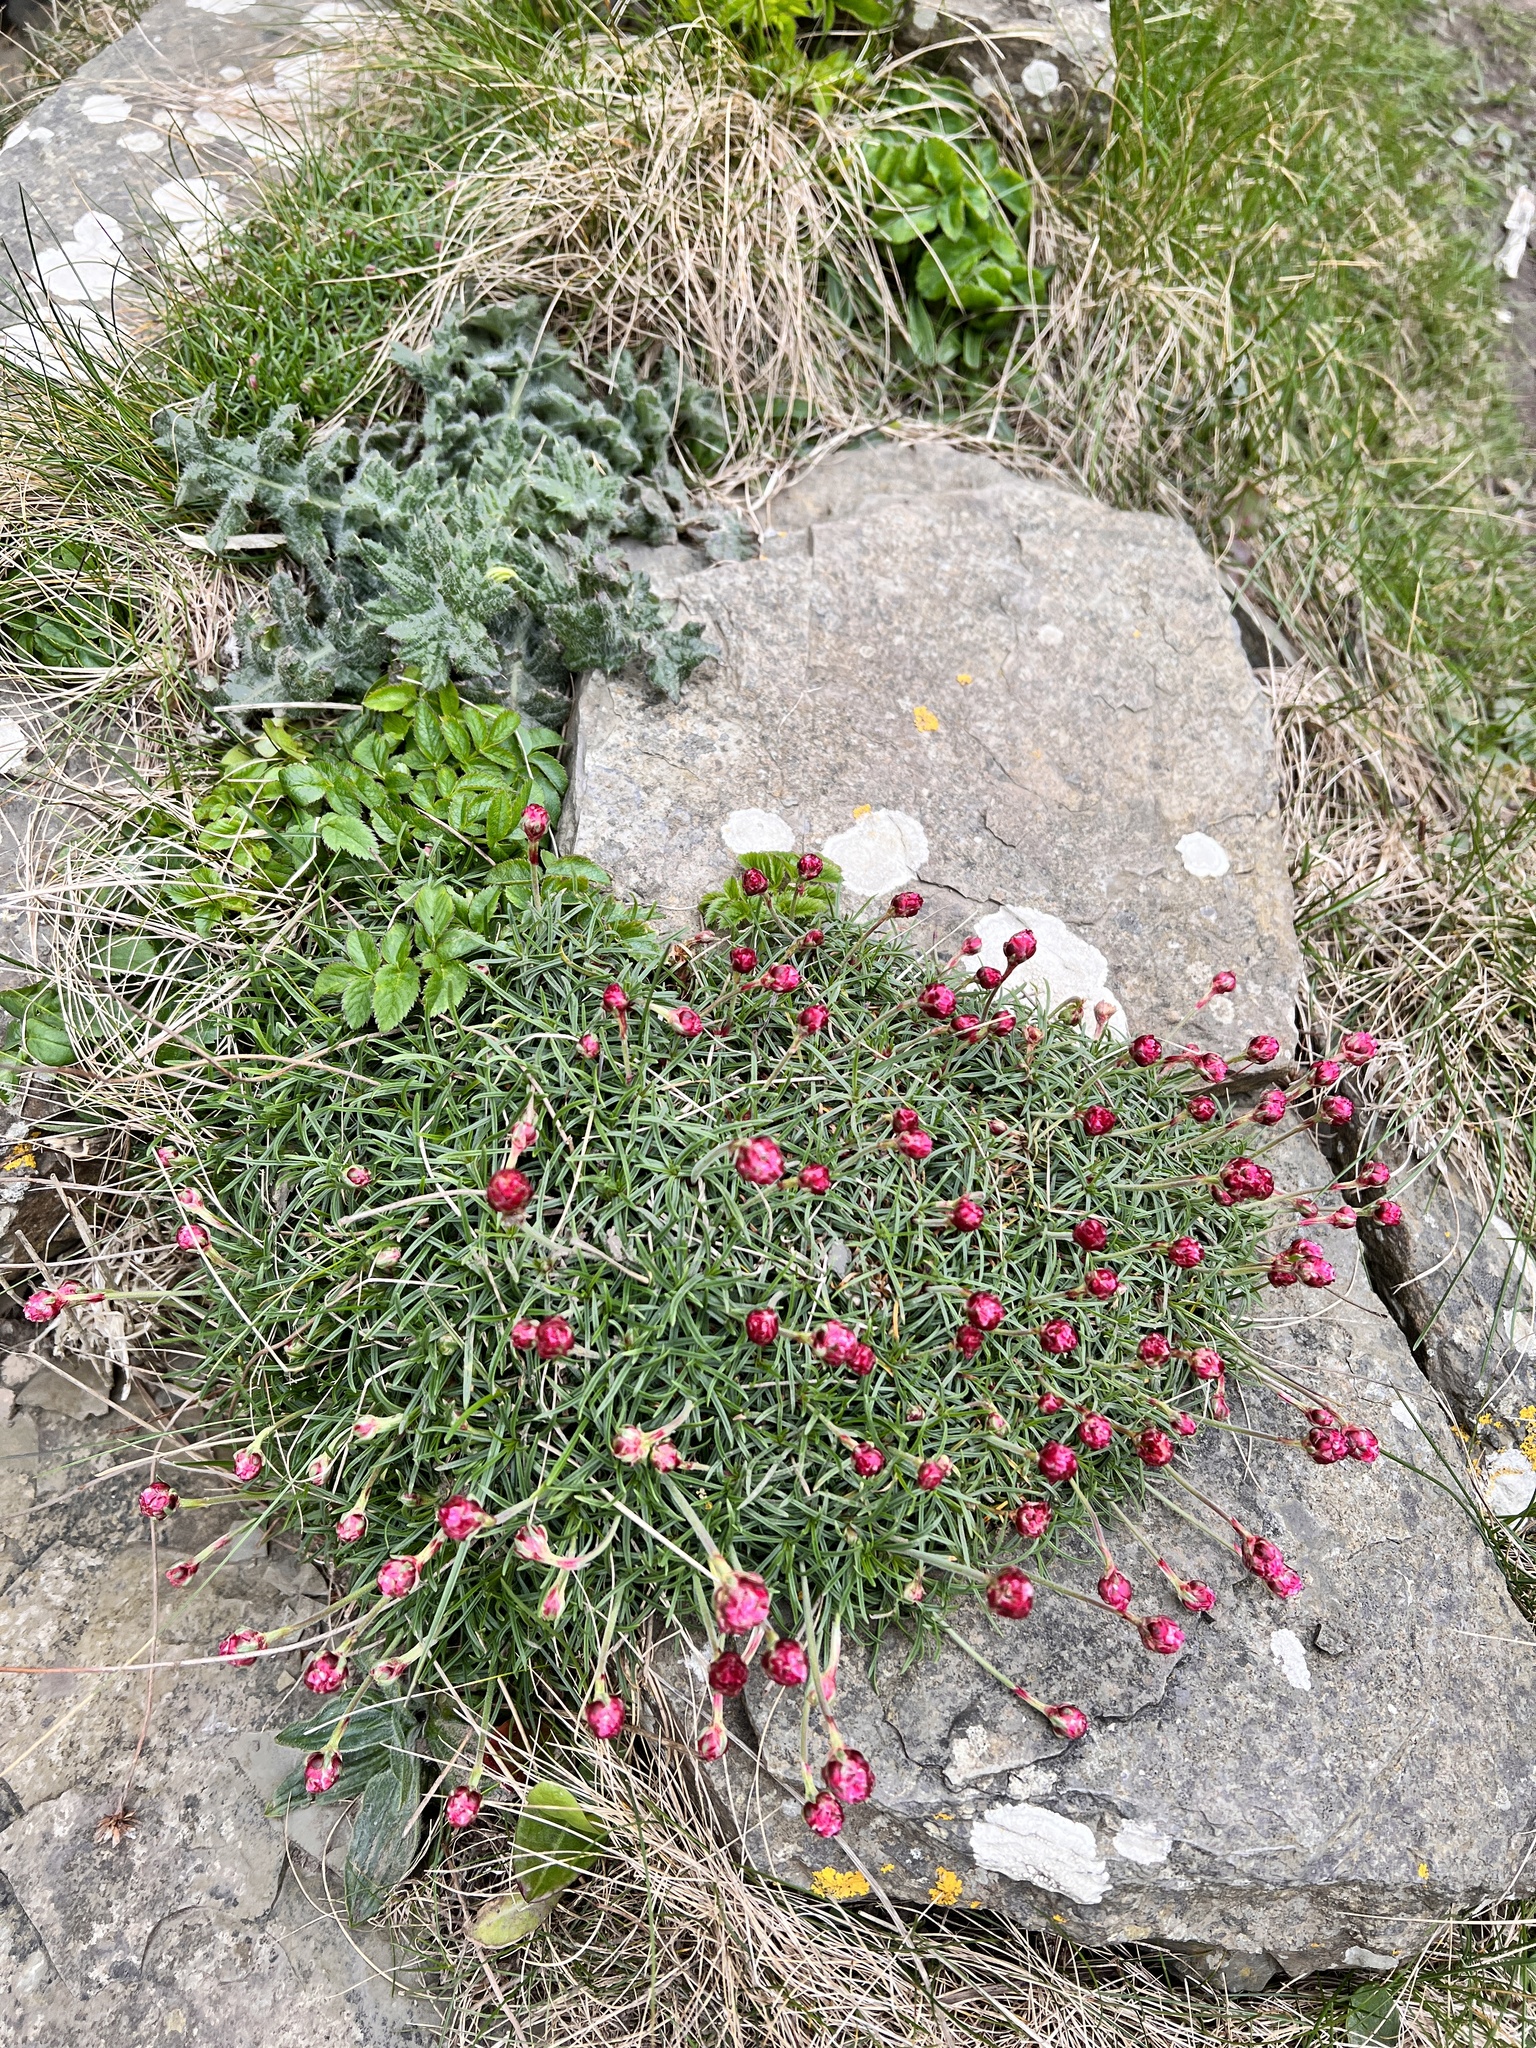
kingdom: Plantae
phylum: Tracheophyta
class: Magnoliopsida
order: Caryophyllales
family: Plumbaginaceae
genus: Armeria
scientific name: Armeria maritima
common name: Thrift
